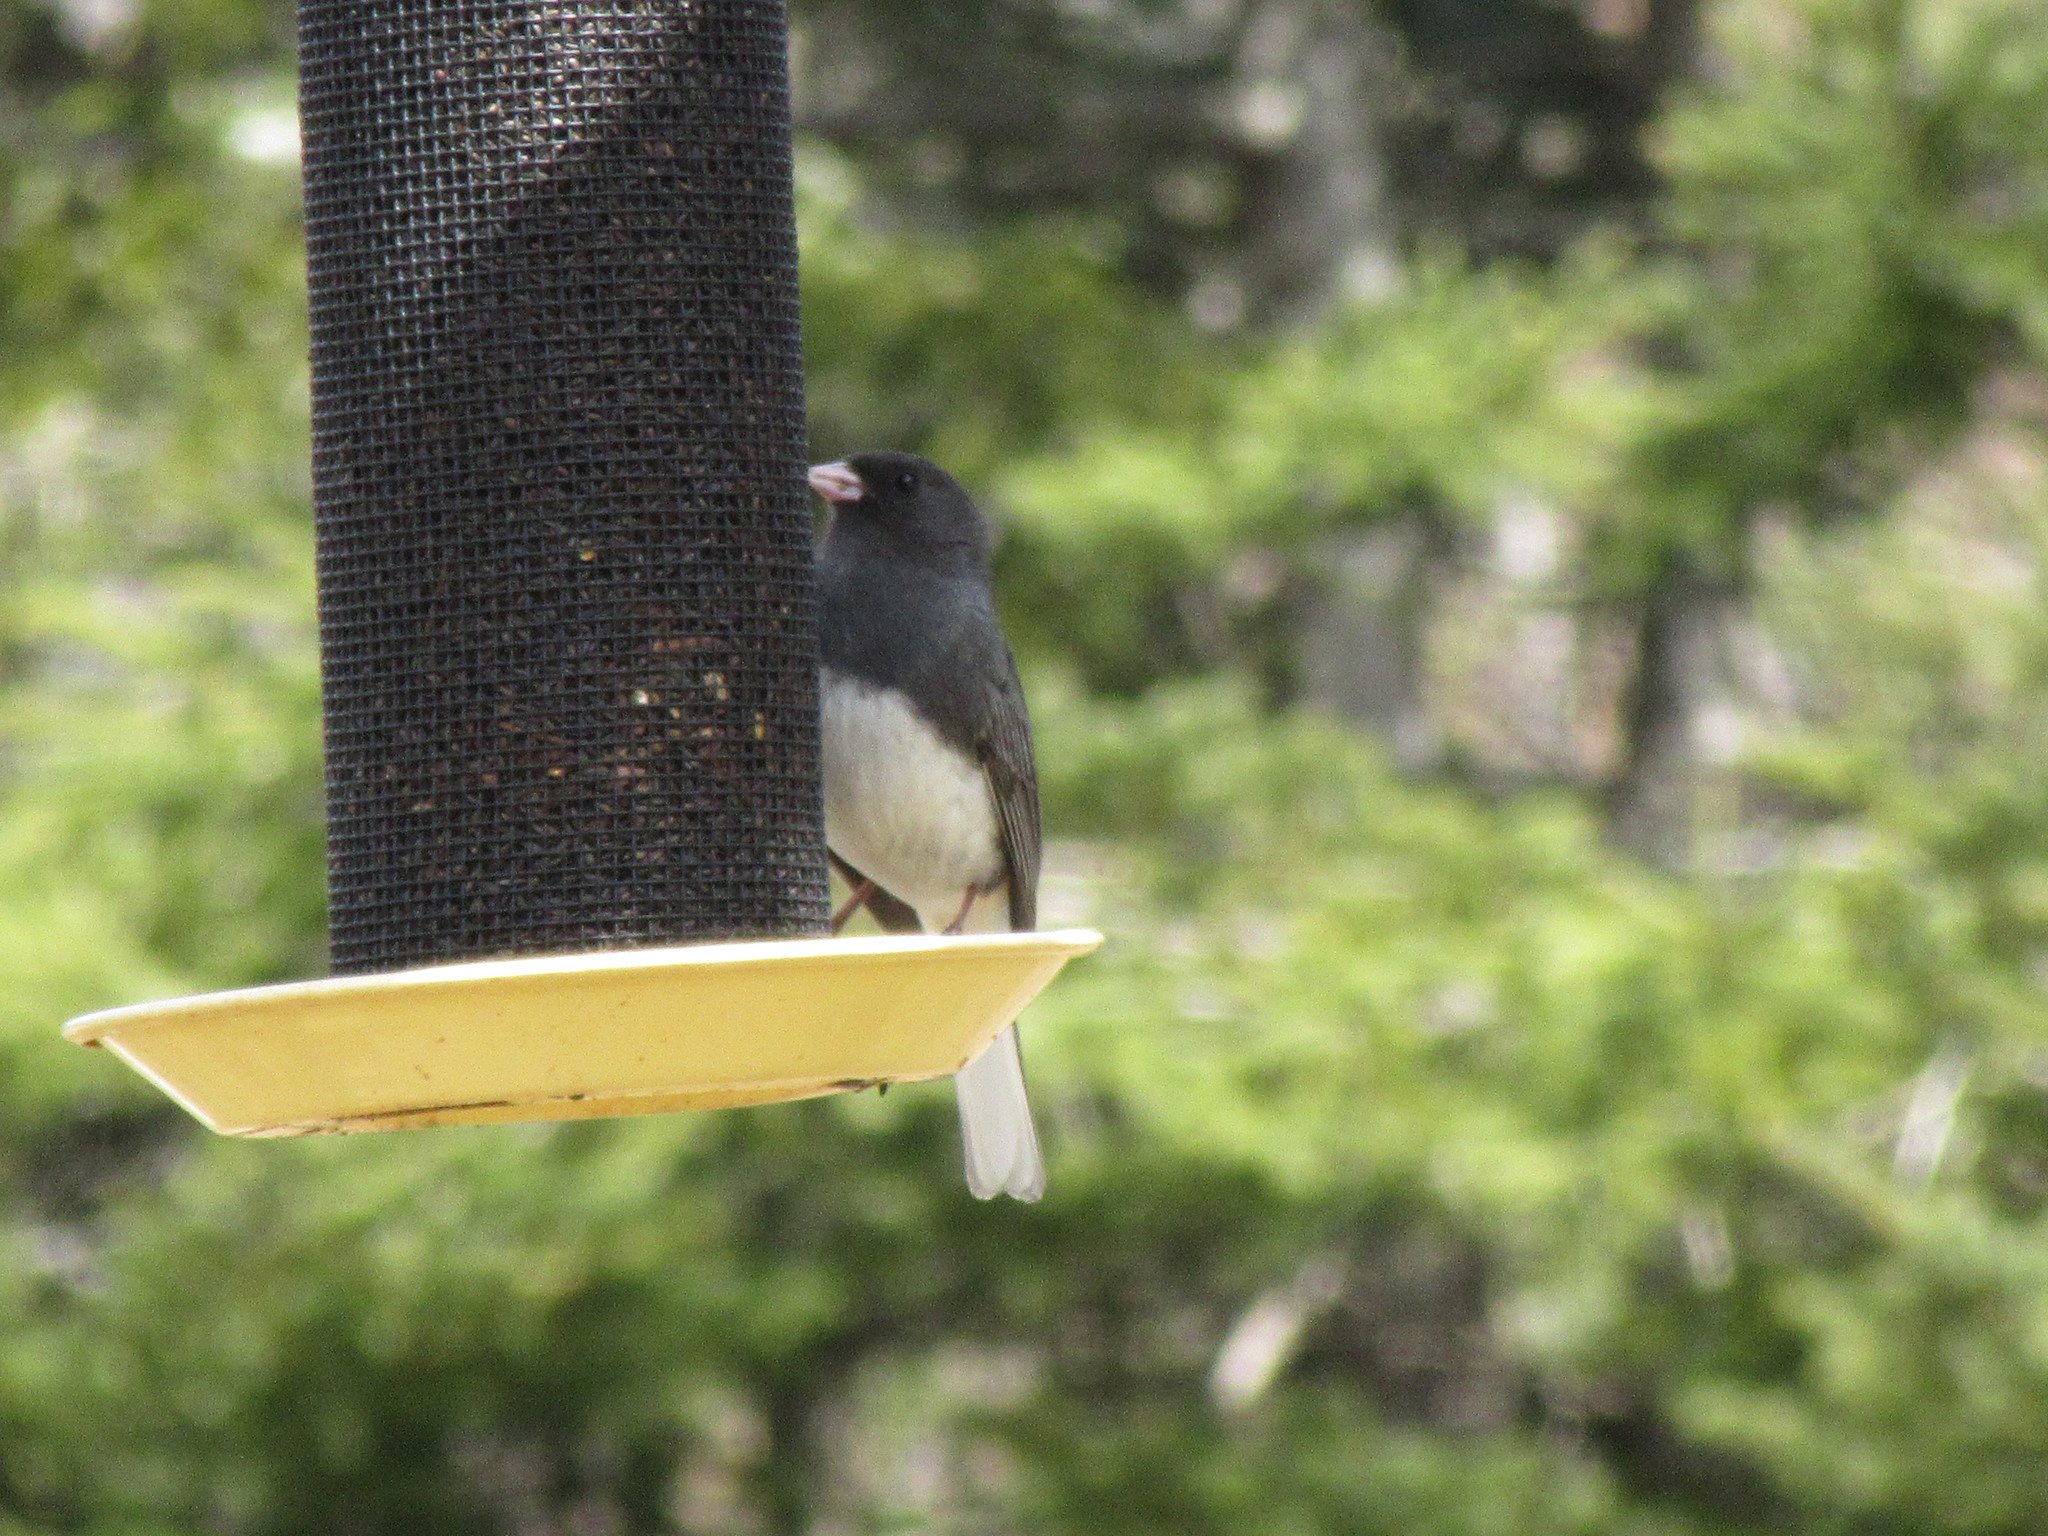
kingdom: Animalia
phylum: Chordata
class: Aves
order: Passeriformes
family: Passerellidae
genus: Junco
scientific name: Junco hyemalis
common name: Dark-eyed junco
